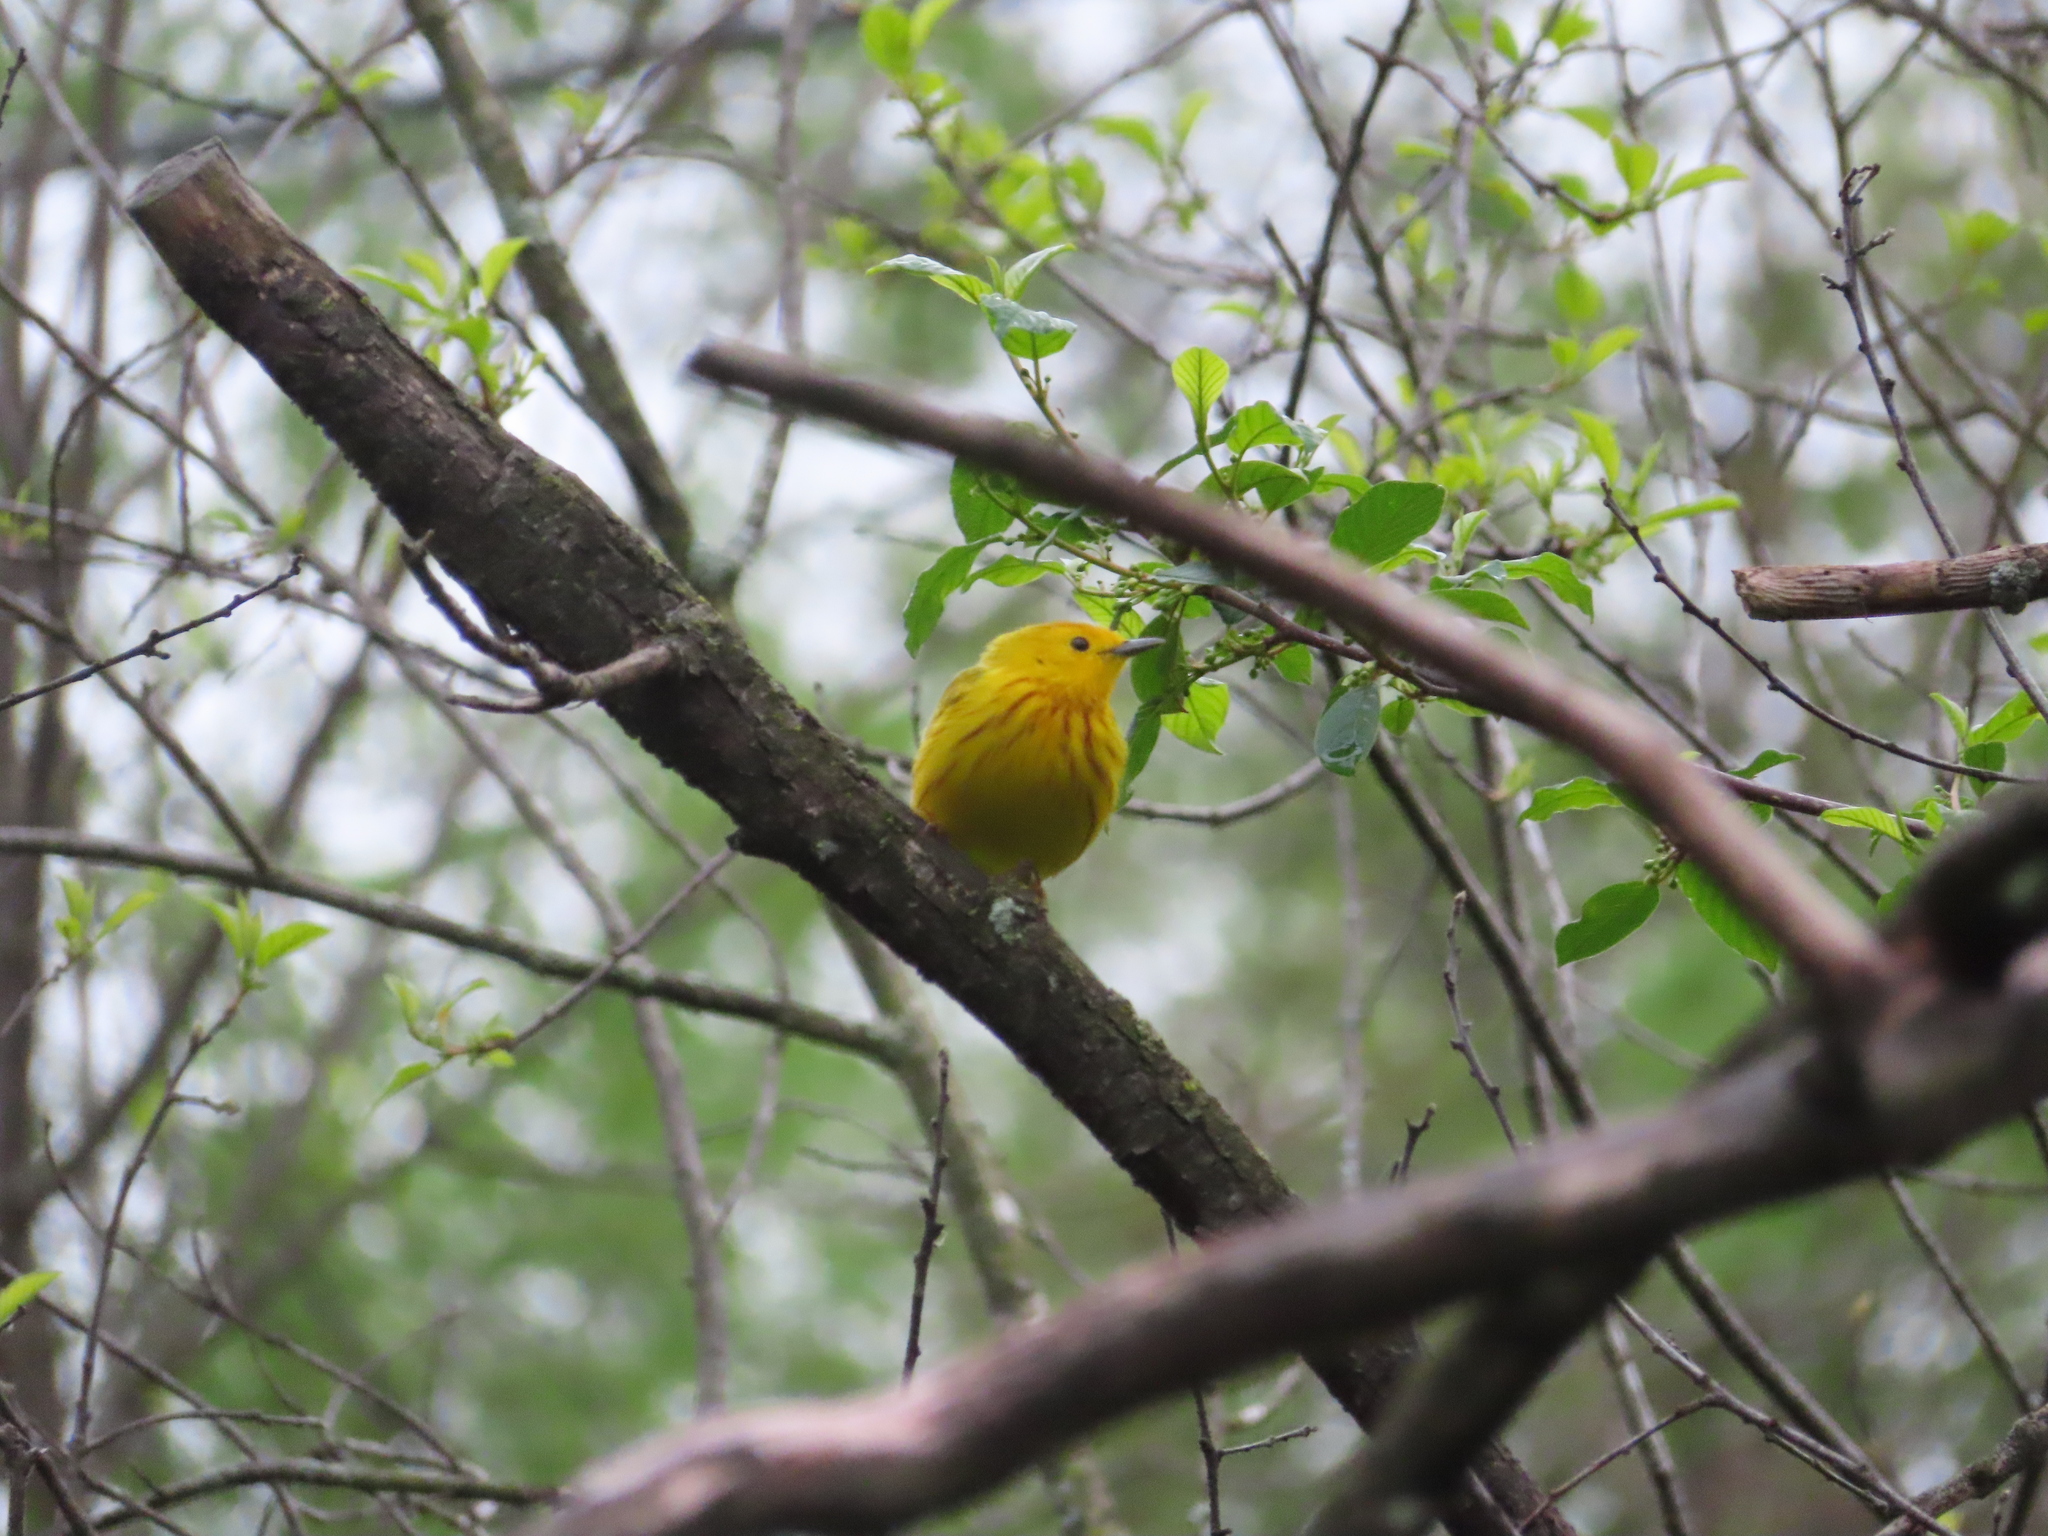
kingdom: Animalia
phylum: Chordata
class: Aves
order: Passeriformes
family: Parulidae
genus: Setophaga
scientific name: Setophaga petechia
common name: Yellow warbler
